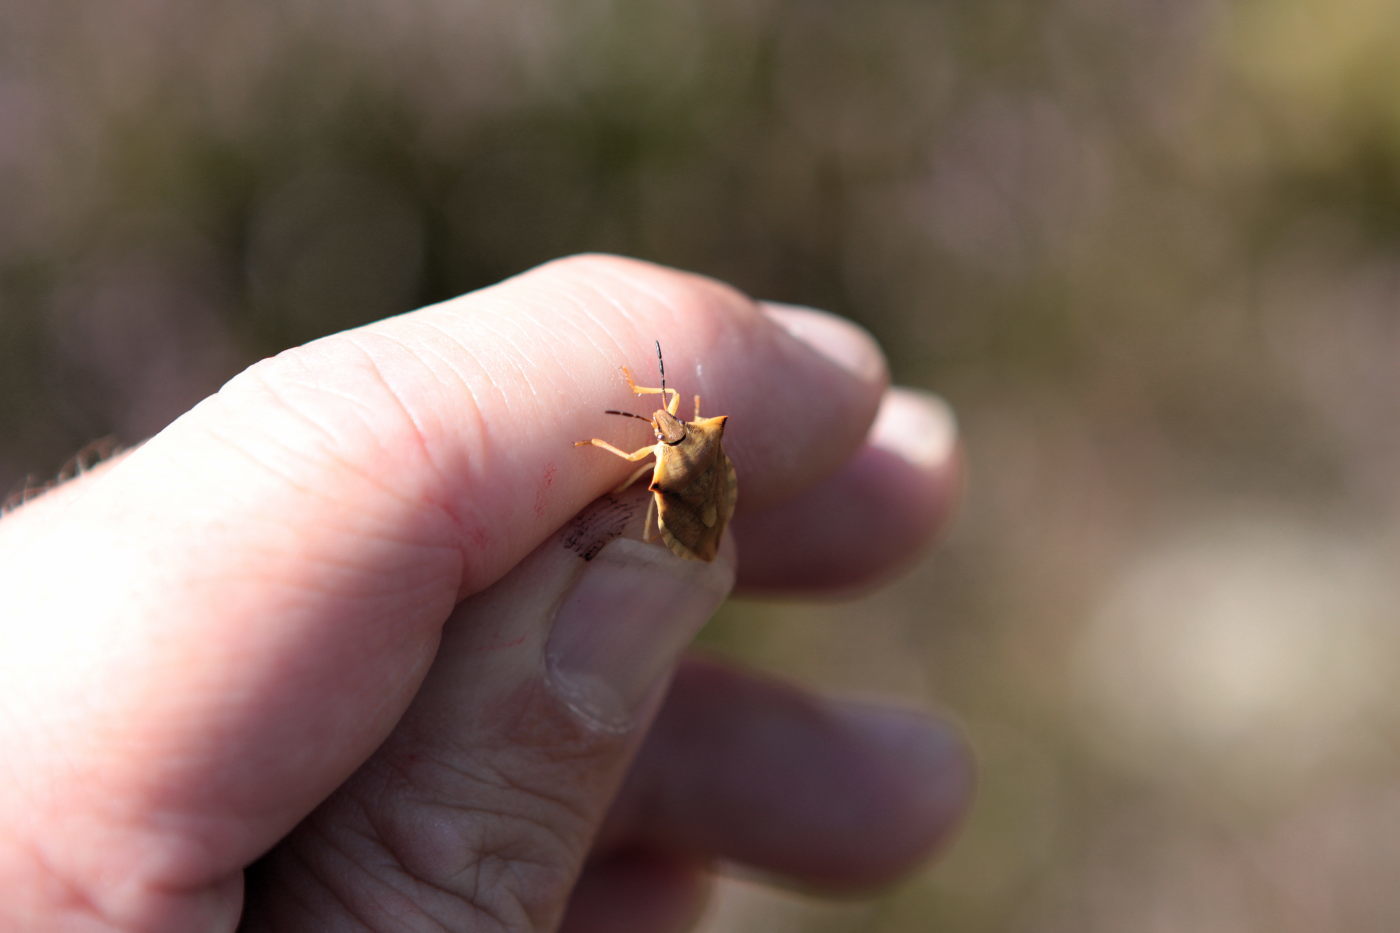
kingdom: Animalia
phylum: Arthropoda
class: Insecta
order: Hemiptera
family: Pentatomidae
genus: Carpocoris
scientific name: Carpocoris fuscispinus
